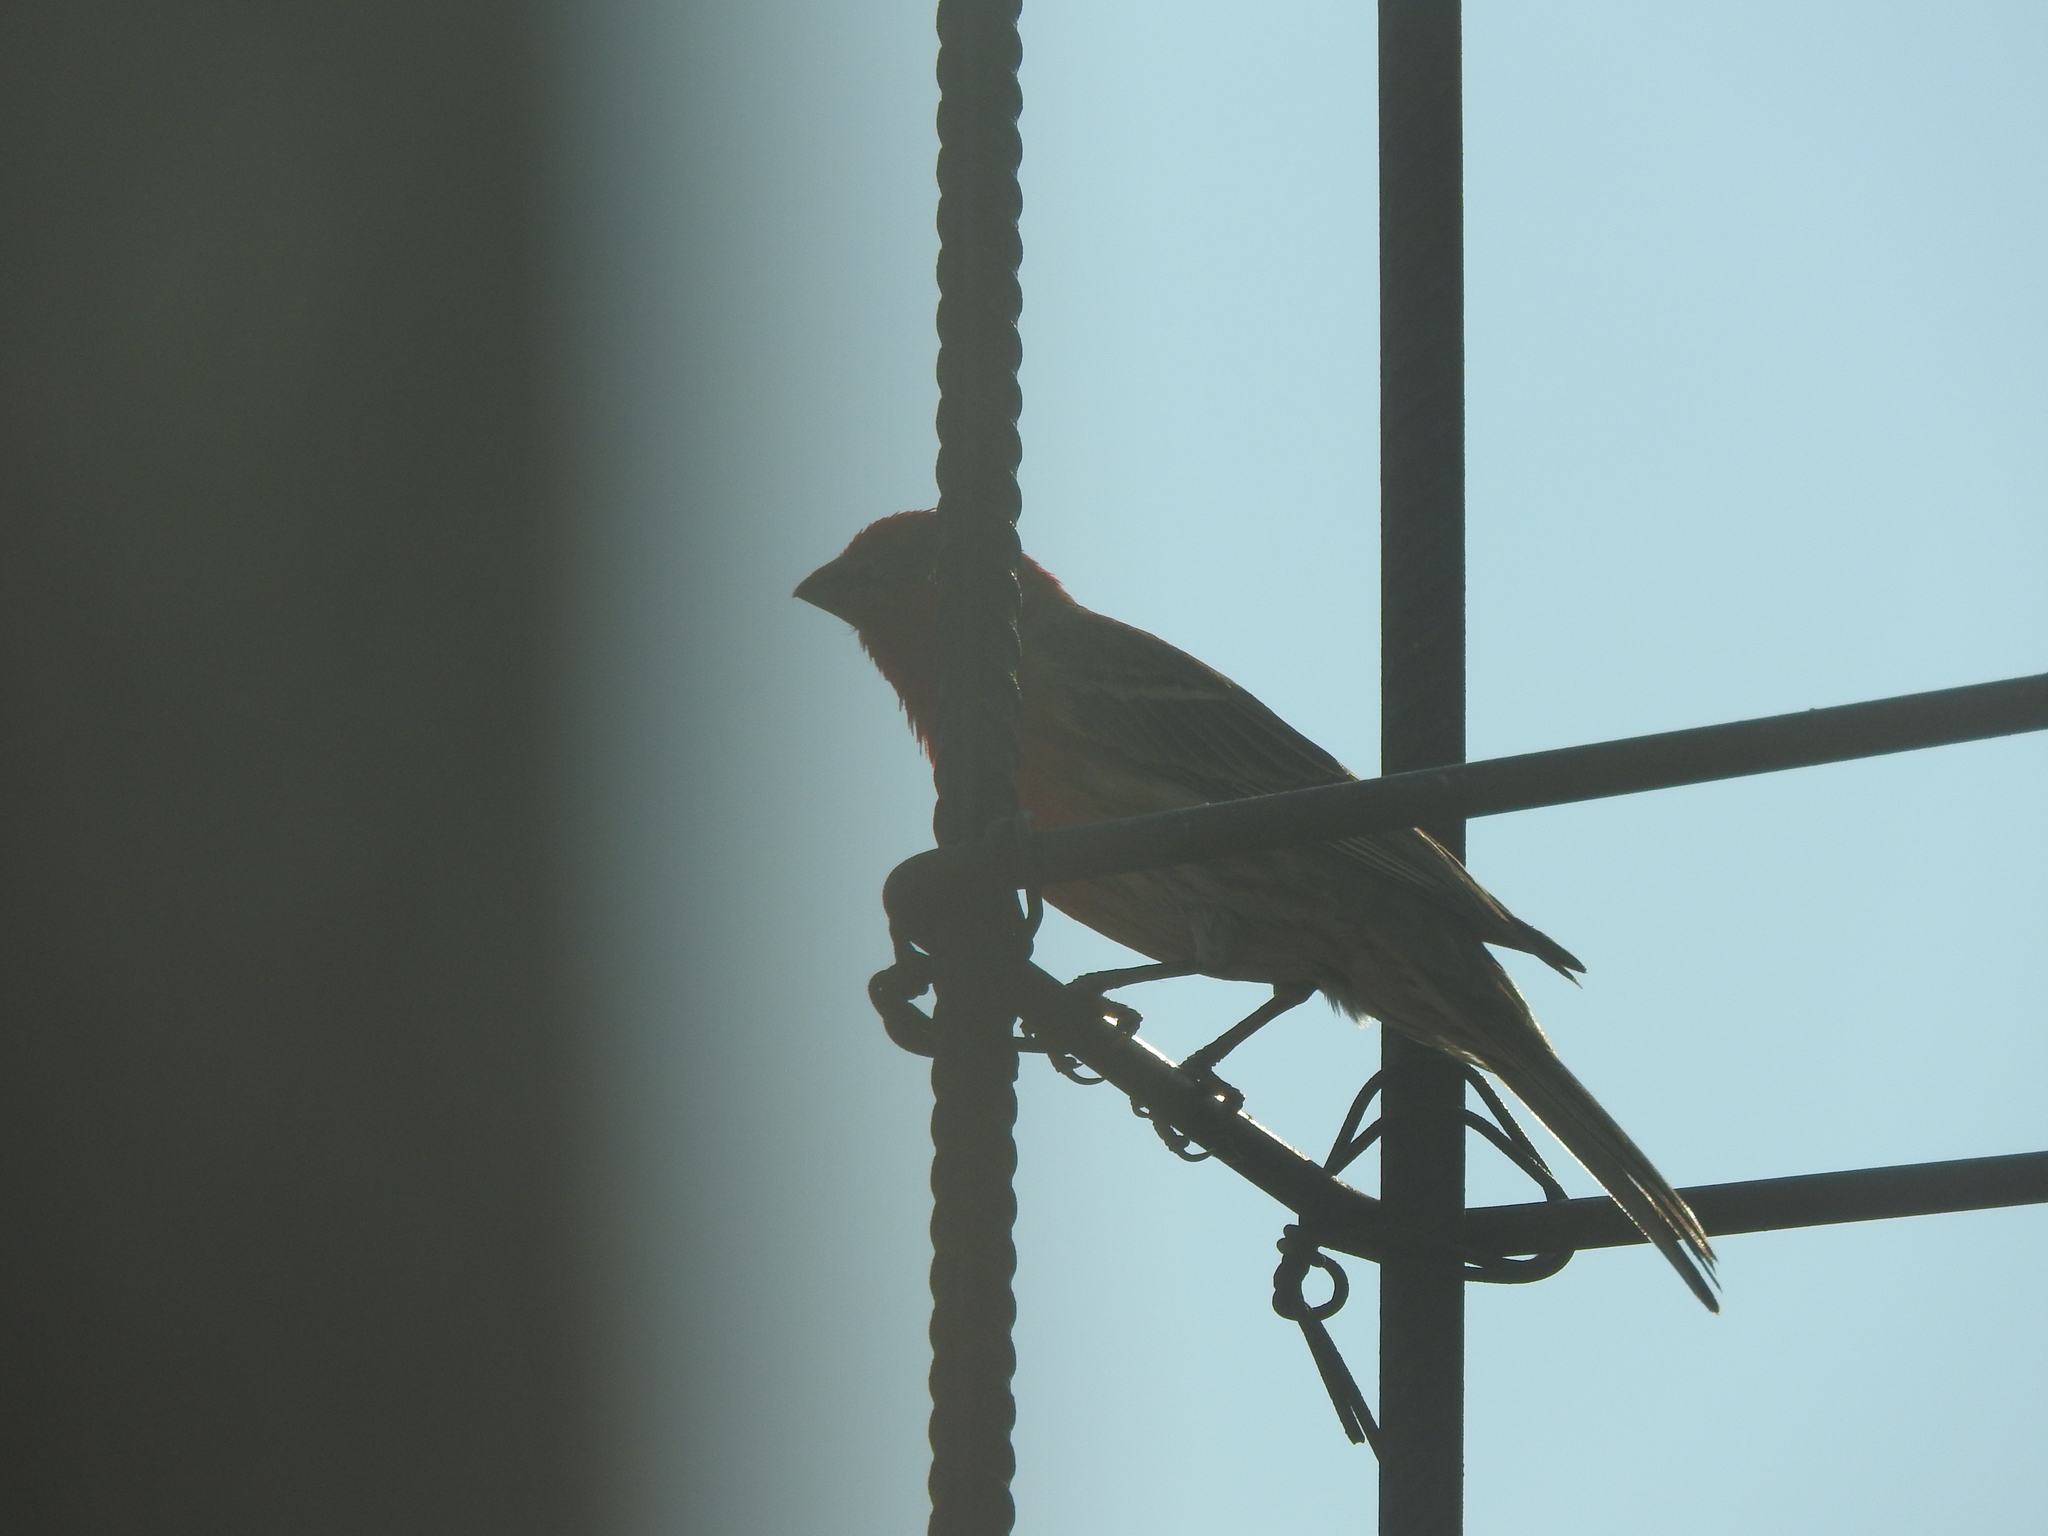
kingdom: Animalia
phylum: Chordata
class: Aves
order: Passeriformes
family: Fringillidae
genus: Haemorhous
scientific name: Haemorhous mexicanus
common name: House finch
